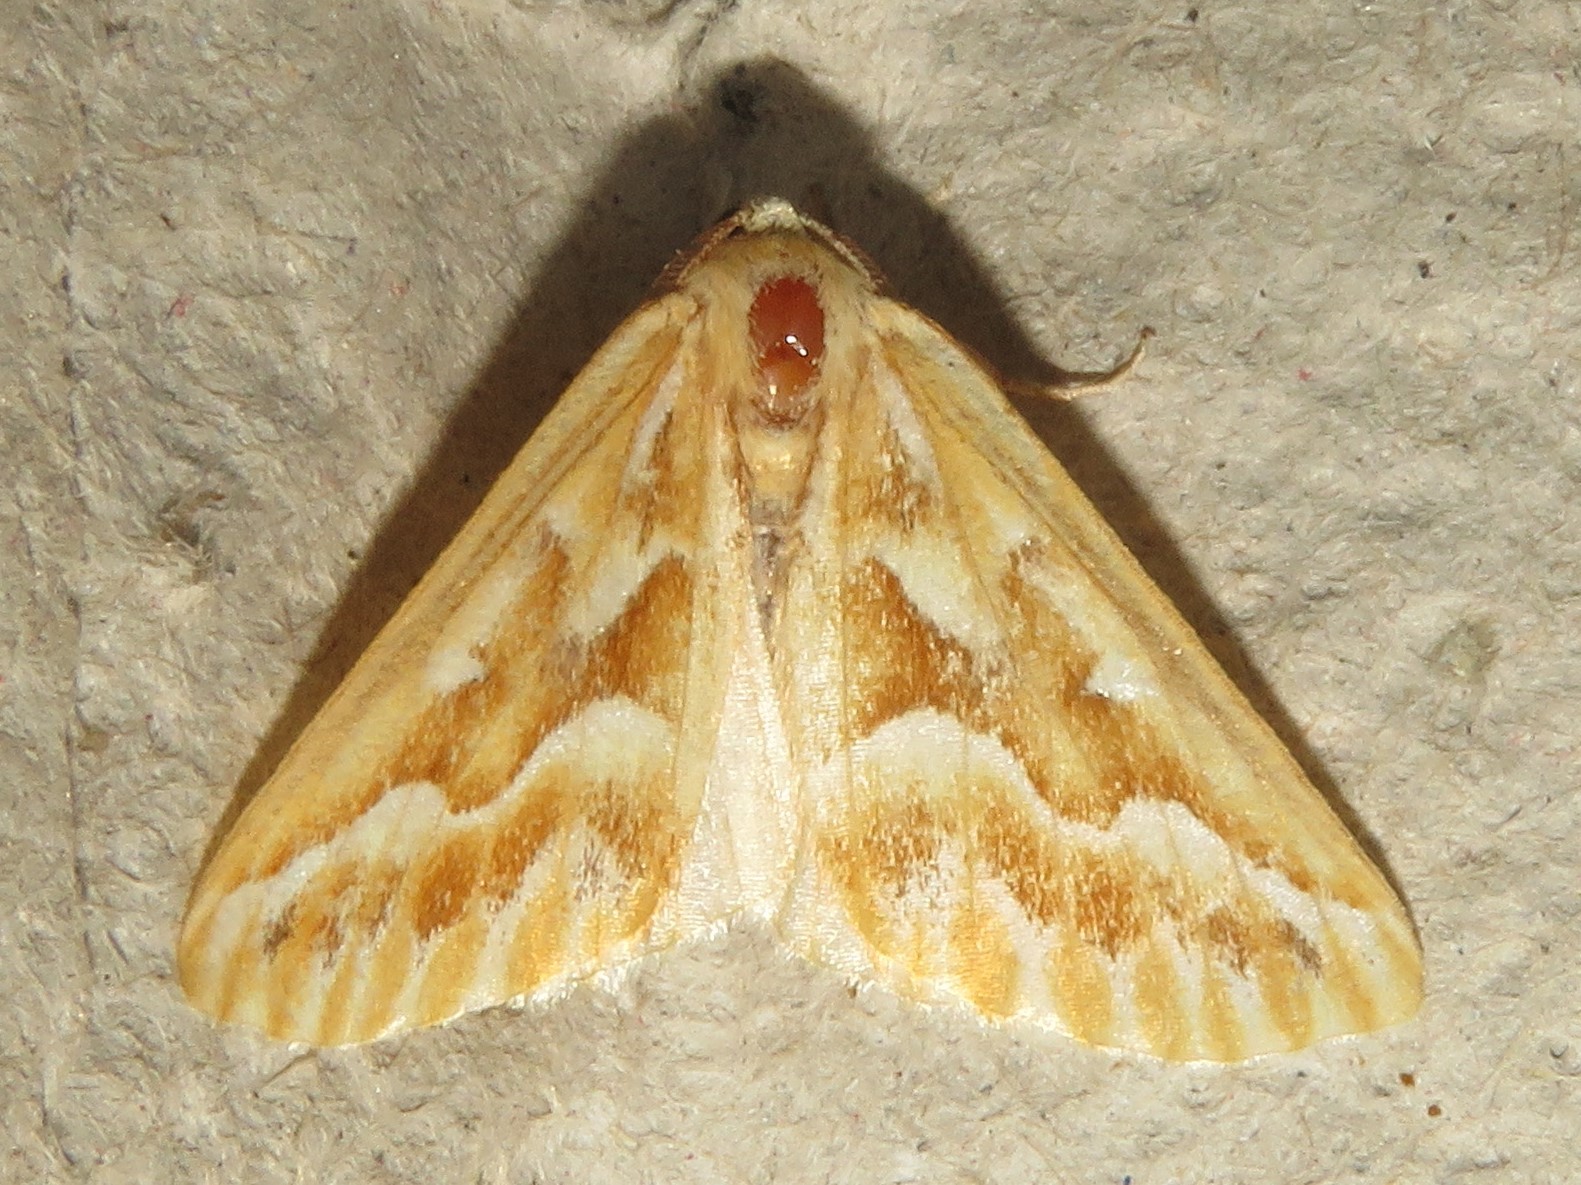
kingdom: Animalia
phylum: Arthropoda
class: Insecta
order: Lepidoptera
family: Geometridae
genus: Caripeta
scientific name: Caripeta piniata
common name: Northern pine looper moth
